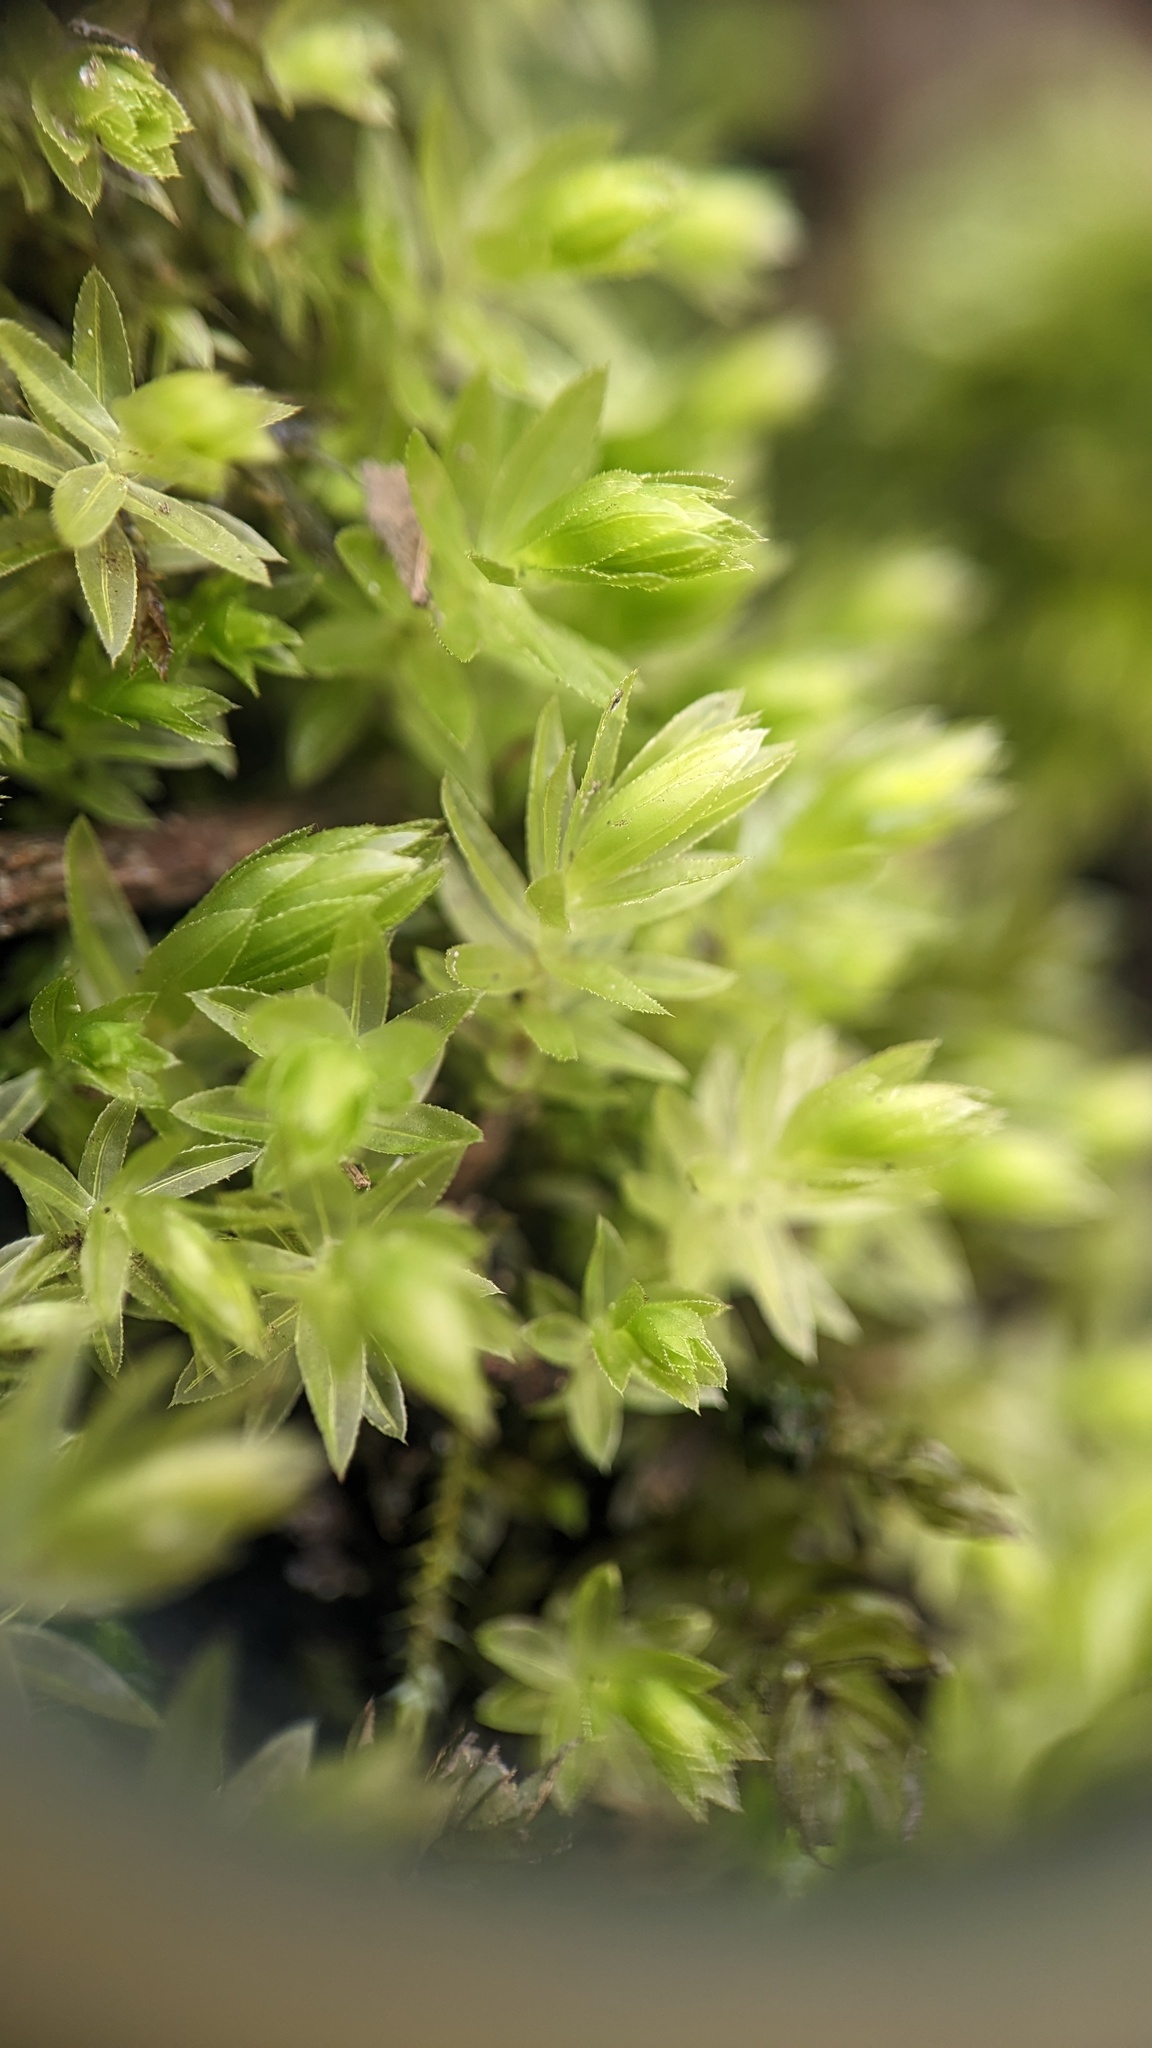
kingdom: Plantae
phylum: Bryophyta
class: Bryopsida
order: Bryales
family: Mniaceae
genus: Mnium
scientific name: Mnium hornum
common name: Swan's-neck leafy moss
